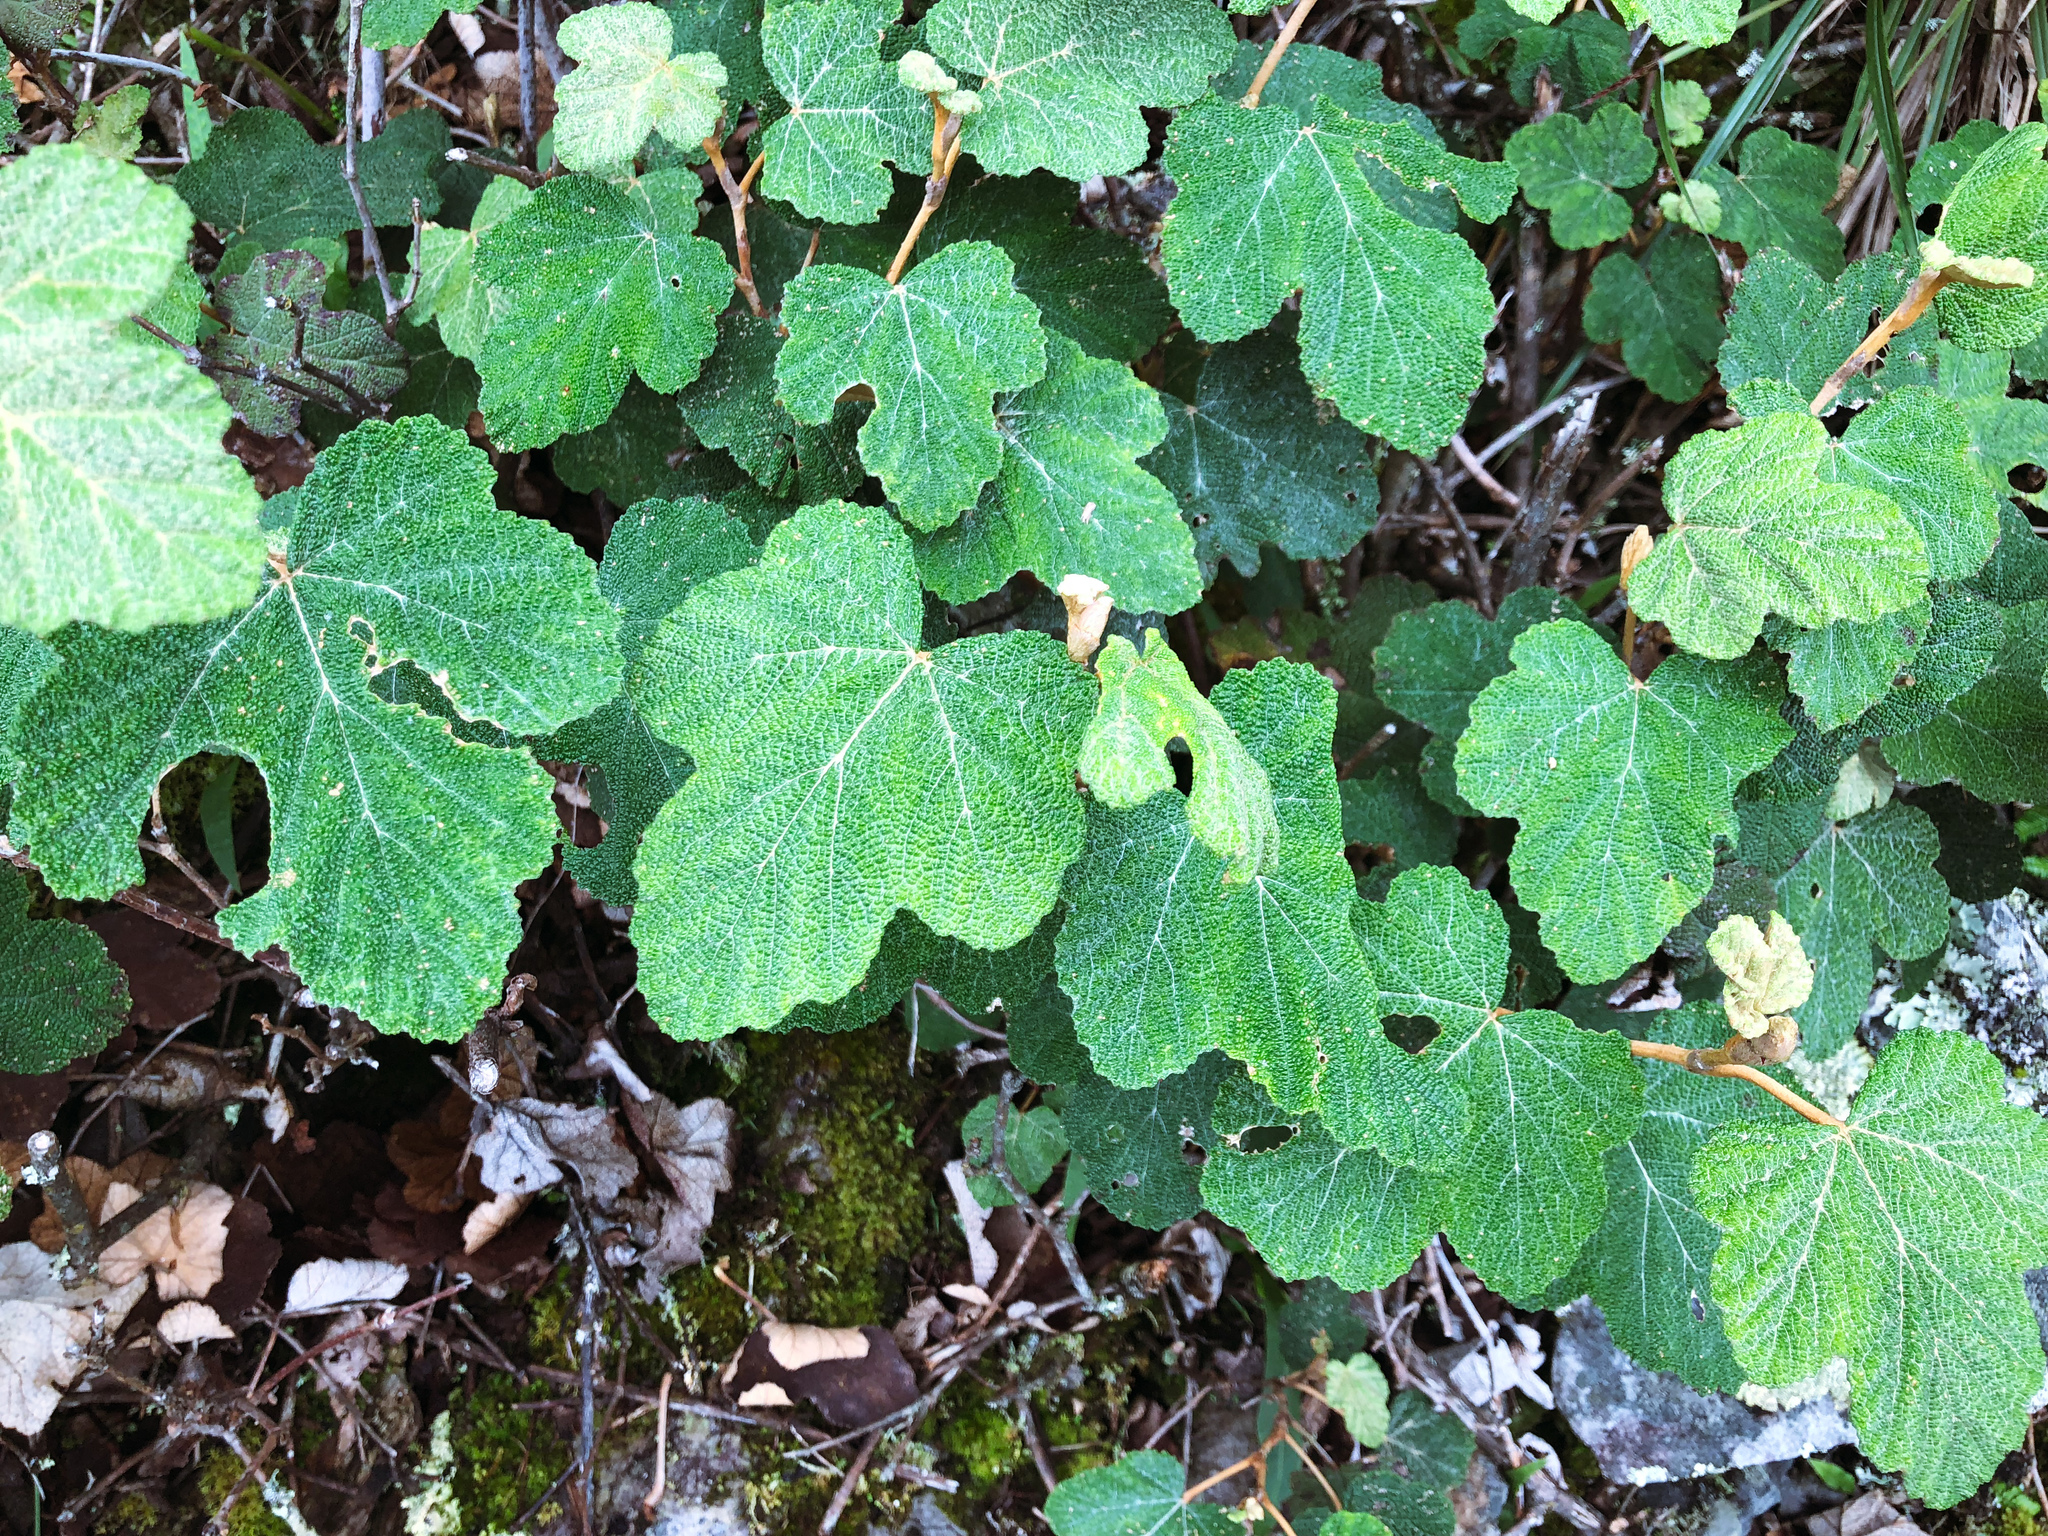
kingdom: Plantae
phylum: Tracheophyta
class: Magnoliopsida
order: Rosales
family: Rosaceae
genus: Rubus
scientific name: Rubus formosensis
